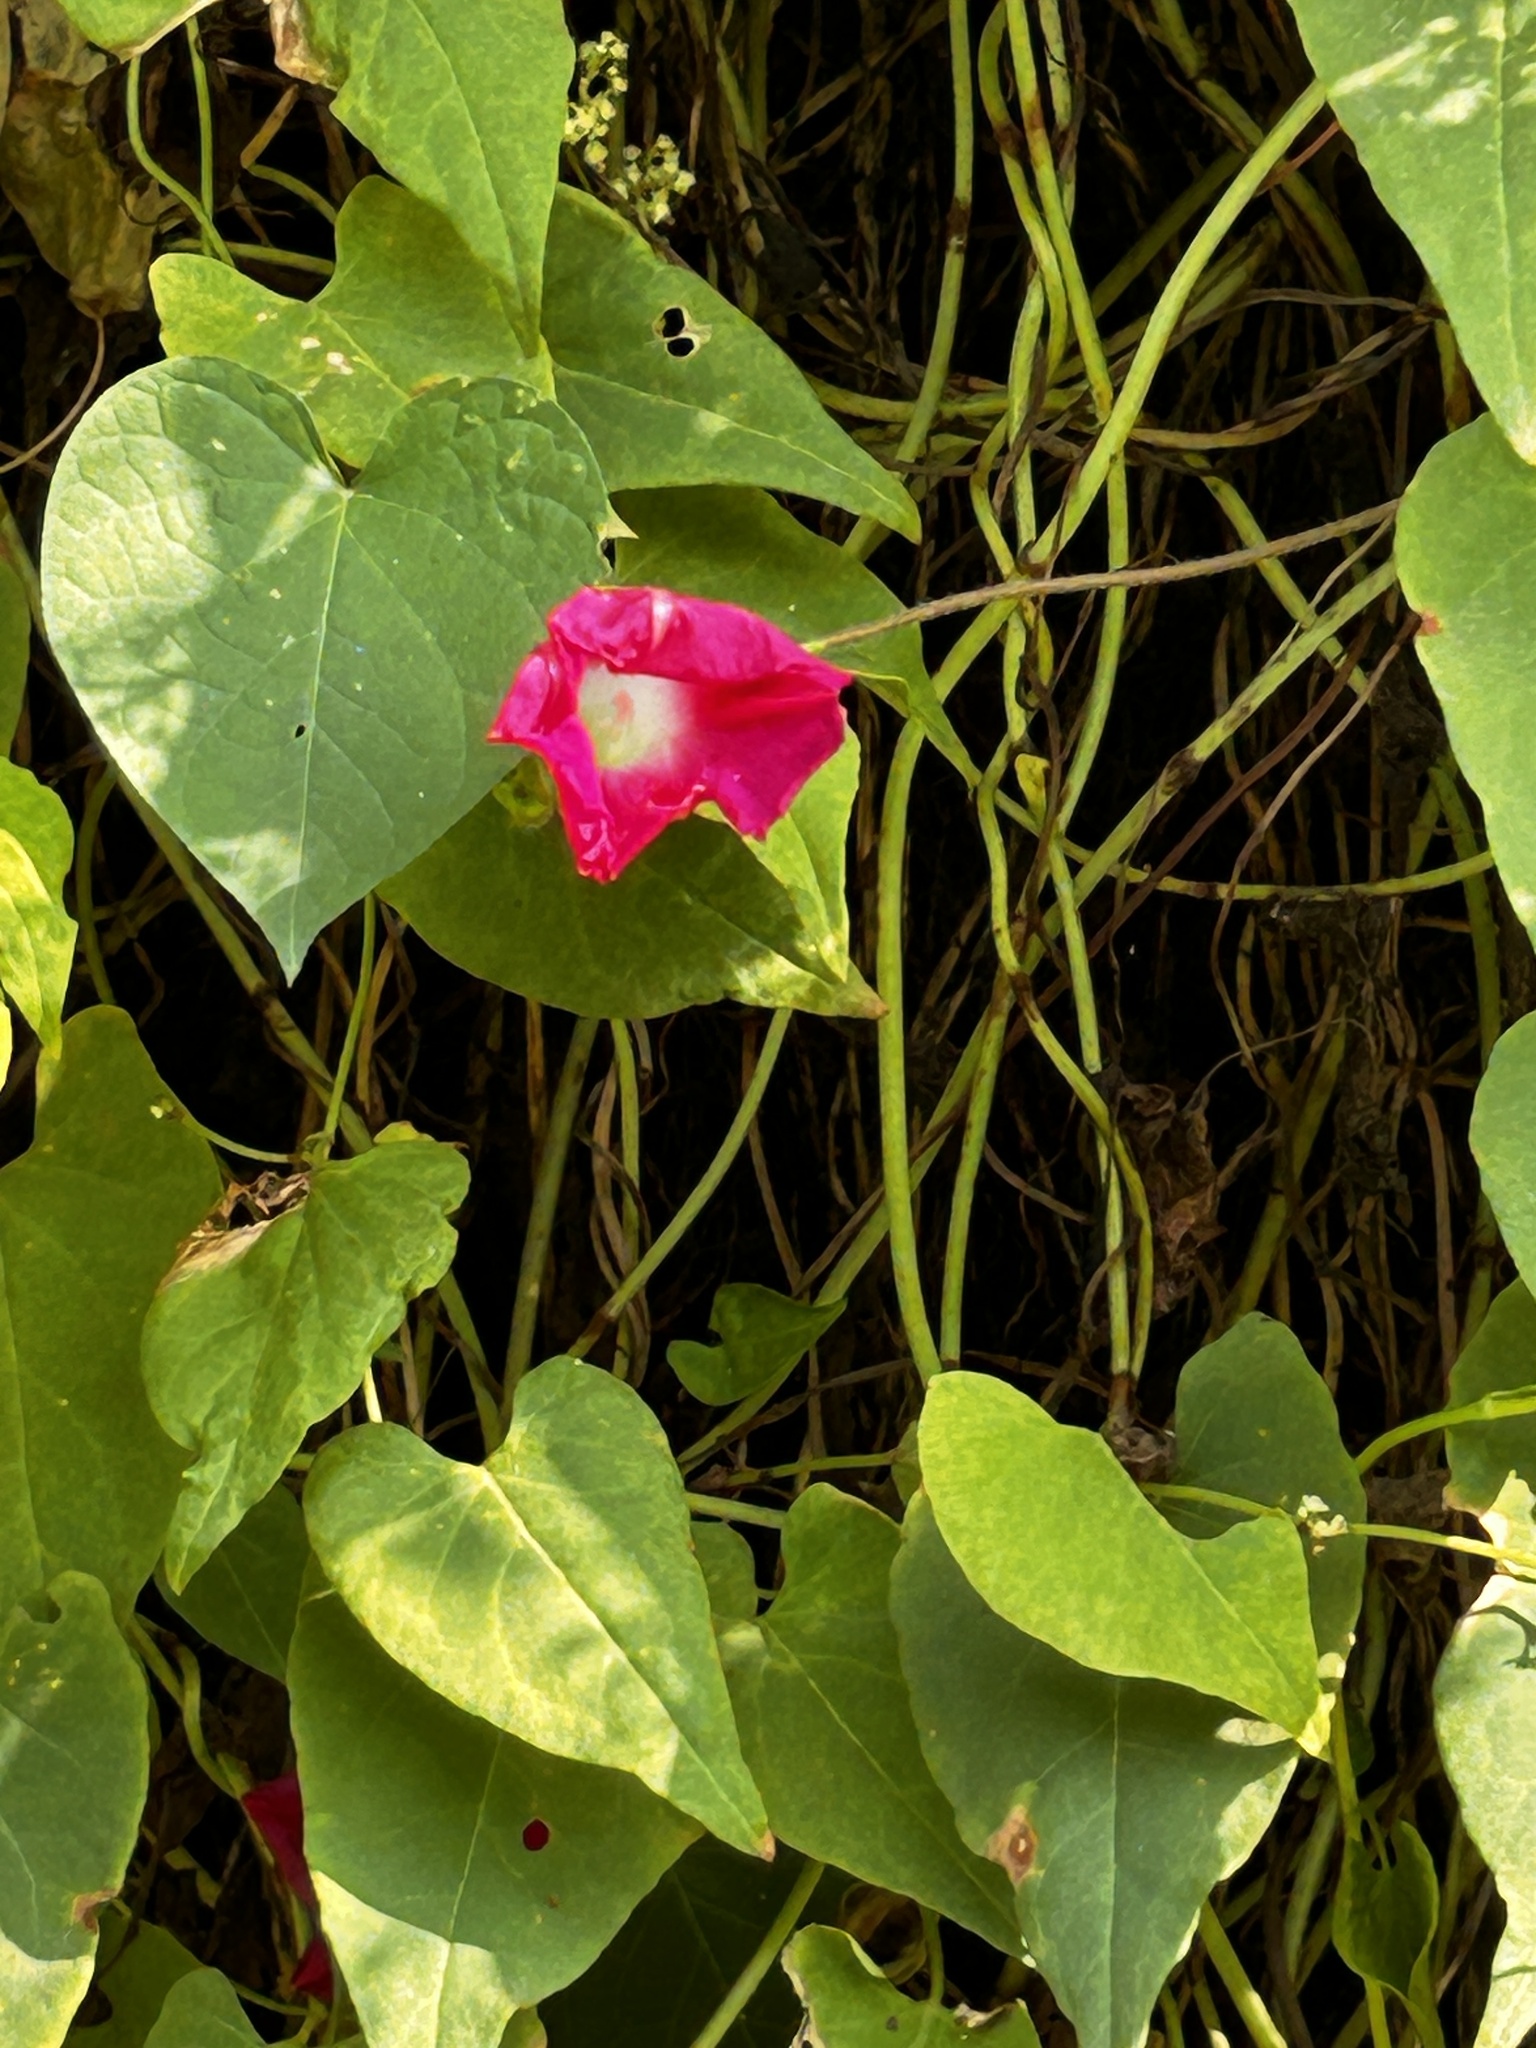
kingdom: Plantae
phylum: Tracheophyta
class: Magnoliopsida
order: Solanales
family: Convolvulaceae
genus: Ipomoea
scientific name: Ipomoea purpurea
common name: Common morning-glory
